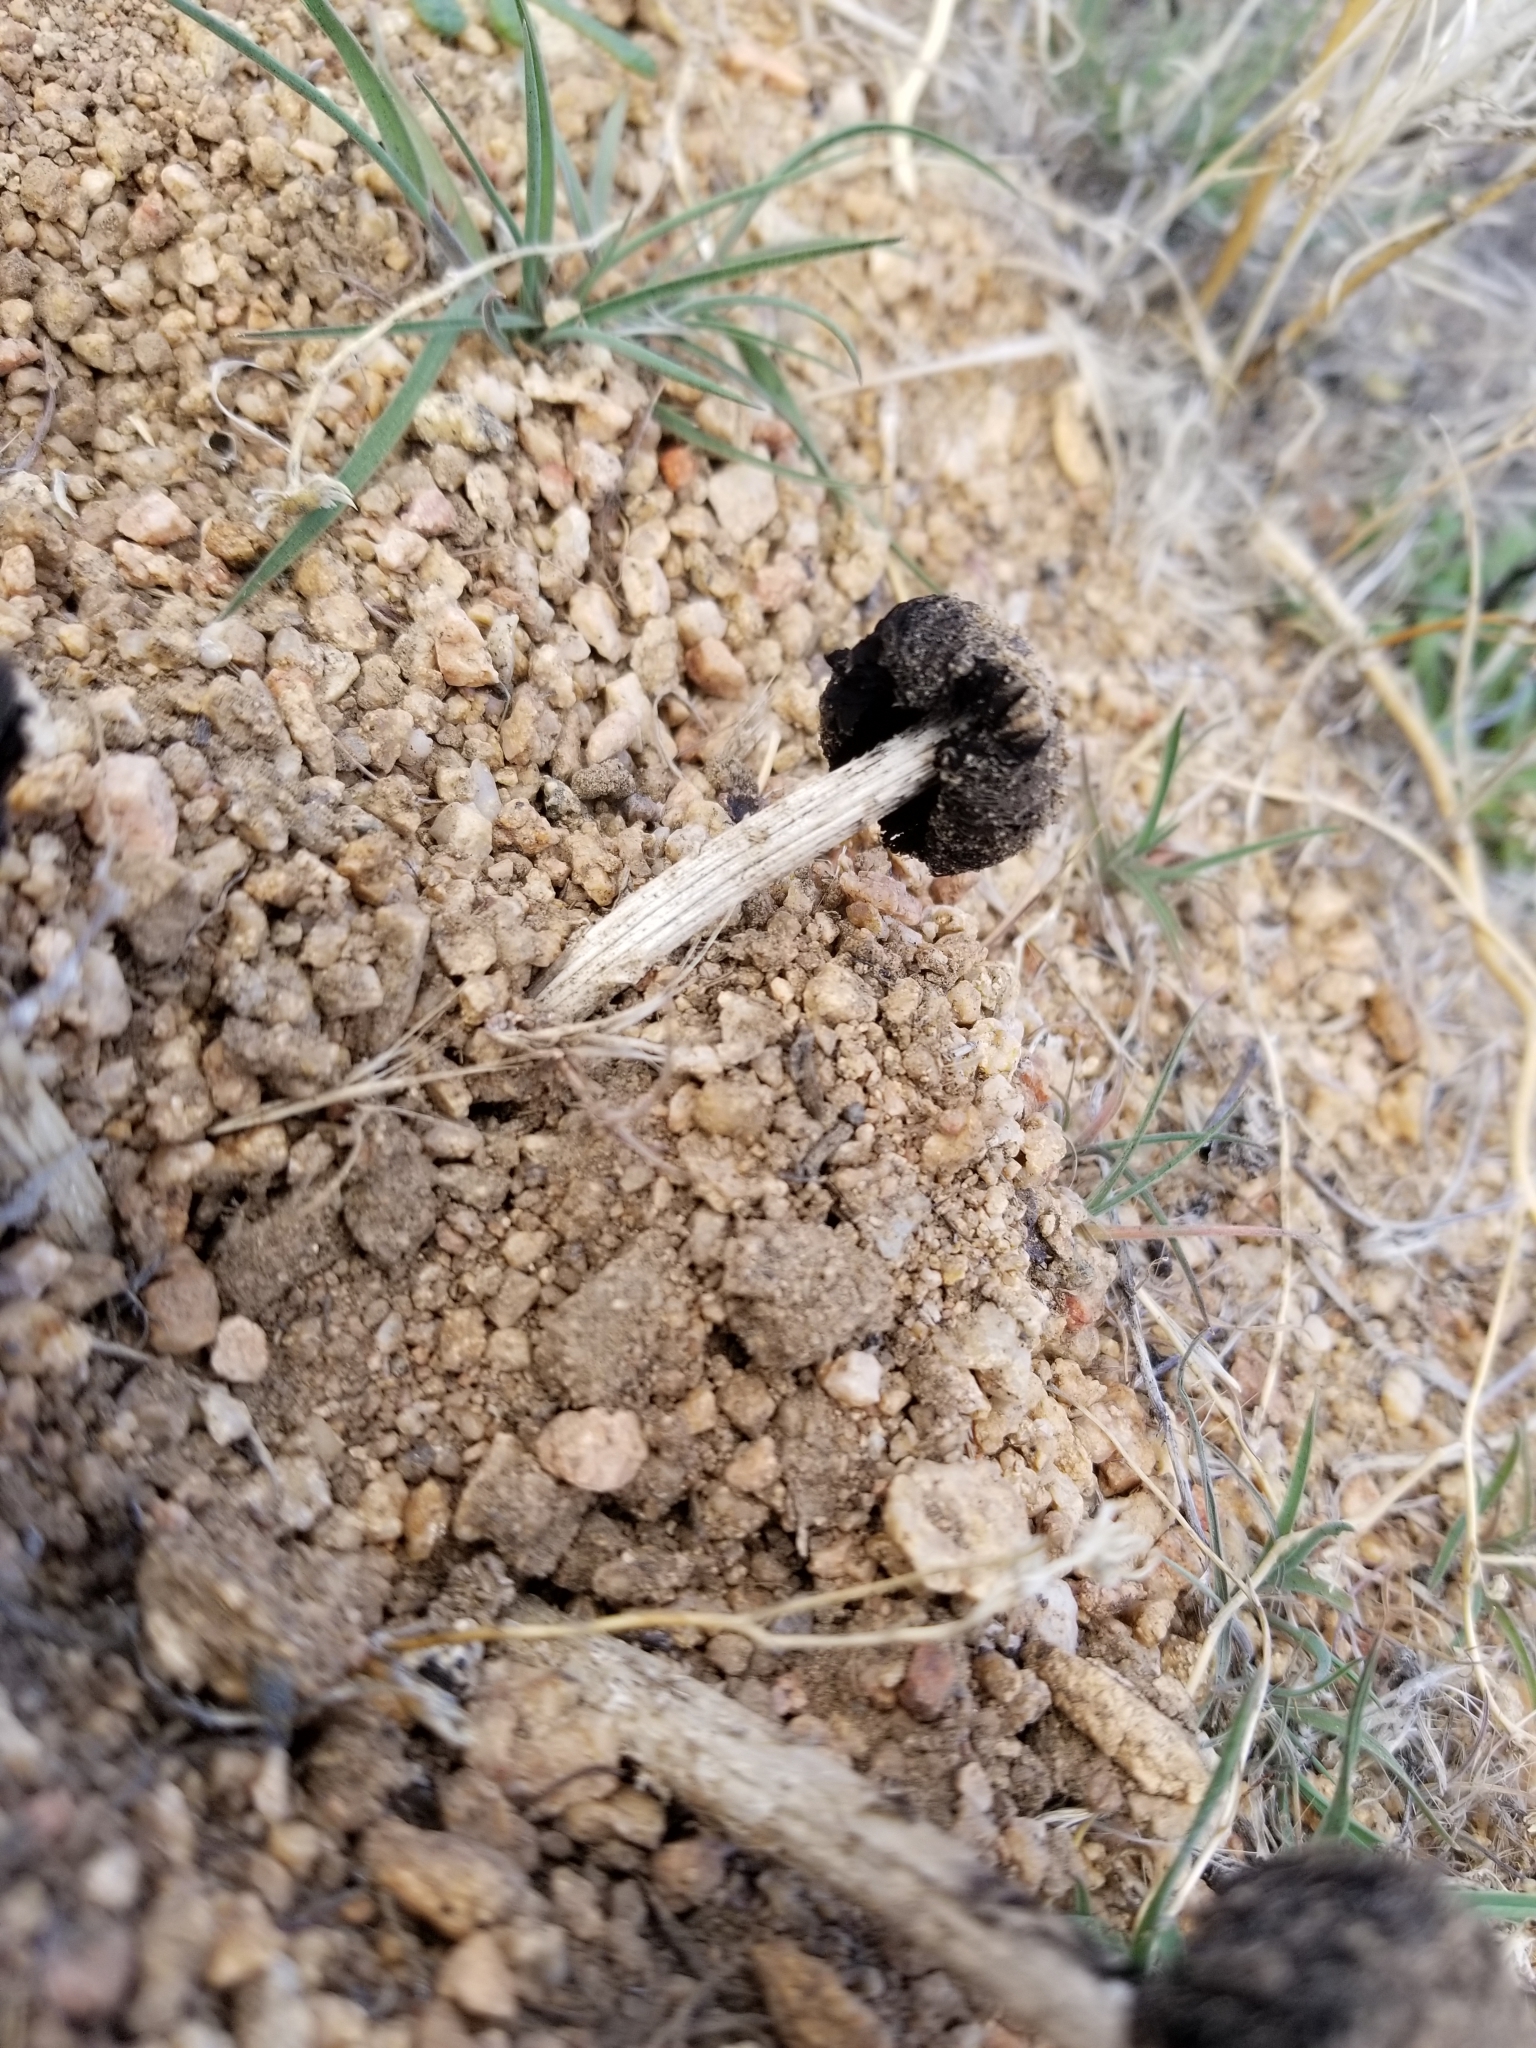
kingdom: Fungi
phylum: Basidiomycota
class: Agaricomycetes
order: Agaricales
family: Agaricaceae
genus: Montagnea
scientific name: Montagnea arenaria
